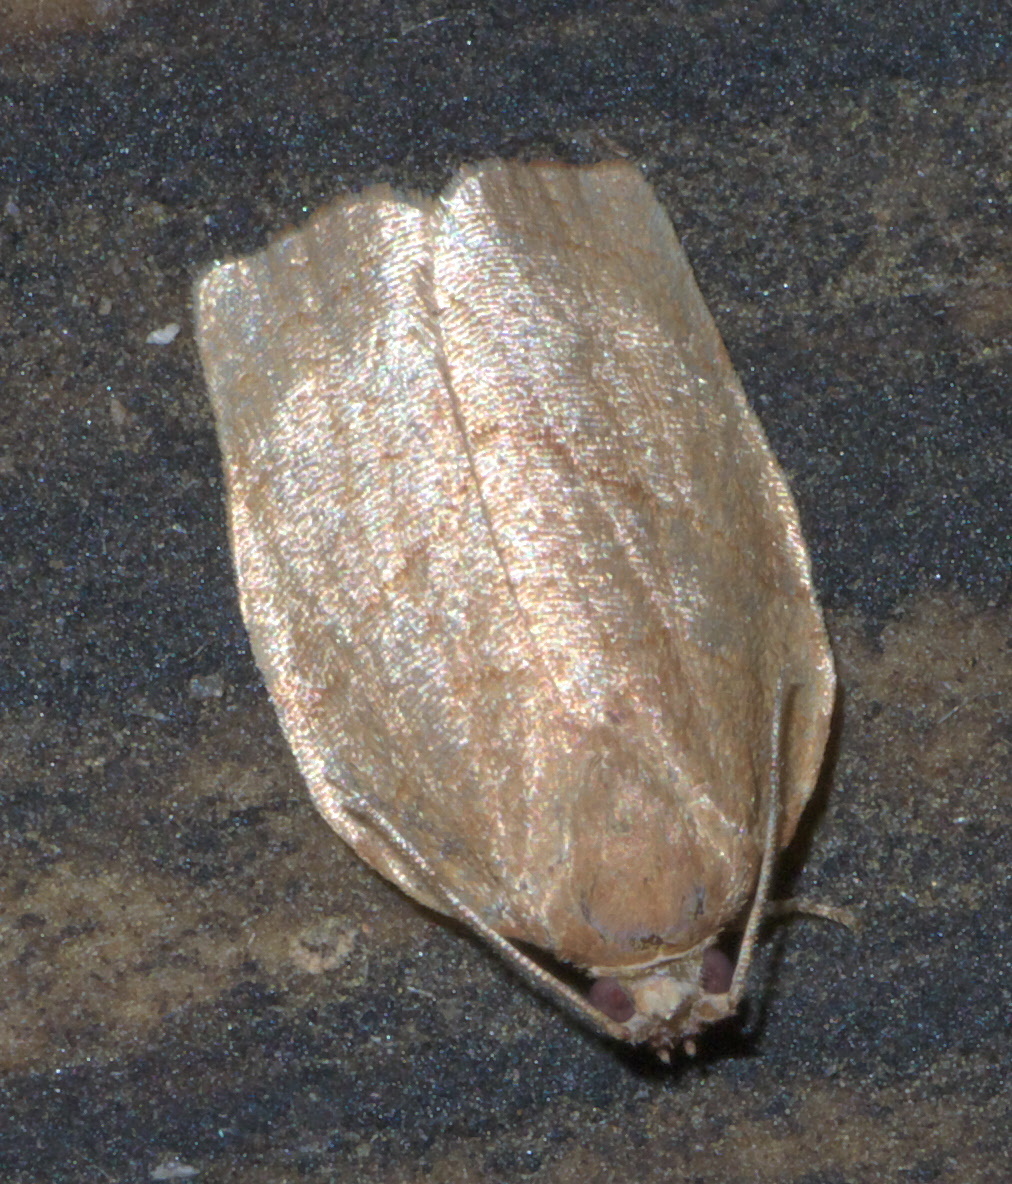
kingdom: Animalia
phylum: Arthropoda
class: Insecta
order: Lepidoptera
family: Tortricidae
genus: Choristoneura
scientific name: Choristoneura rosaceana
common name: Oblique-banded leafroller moth
